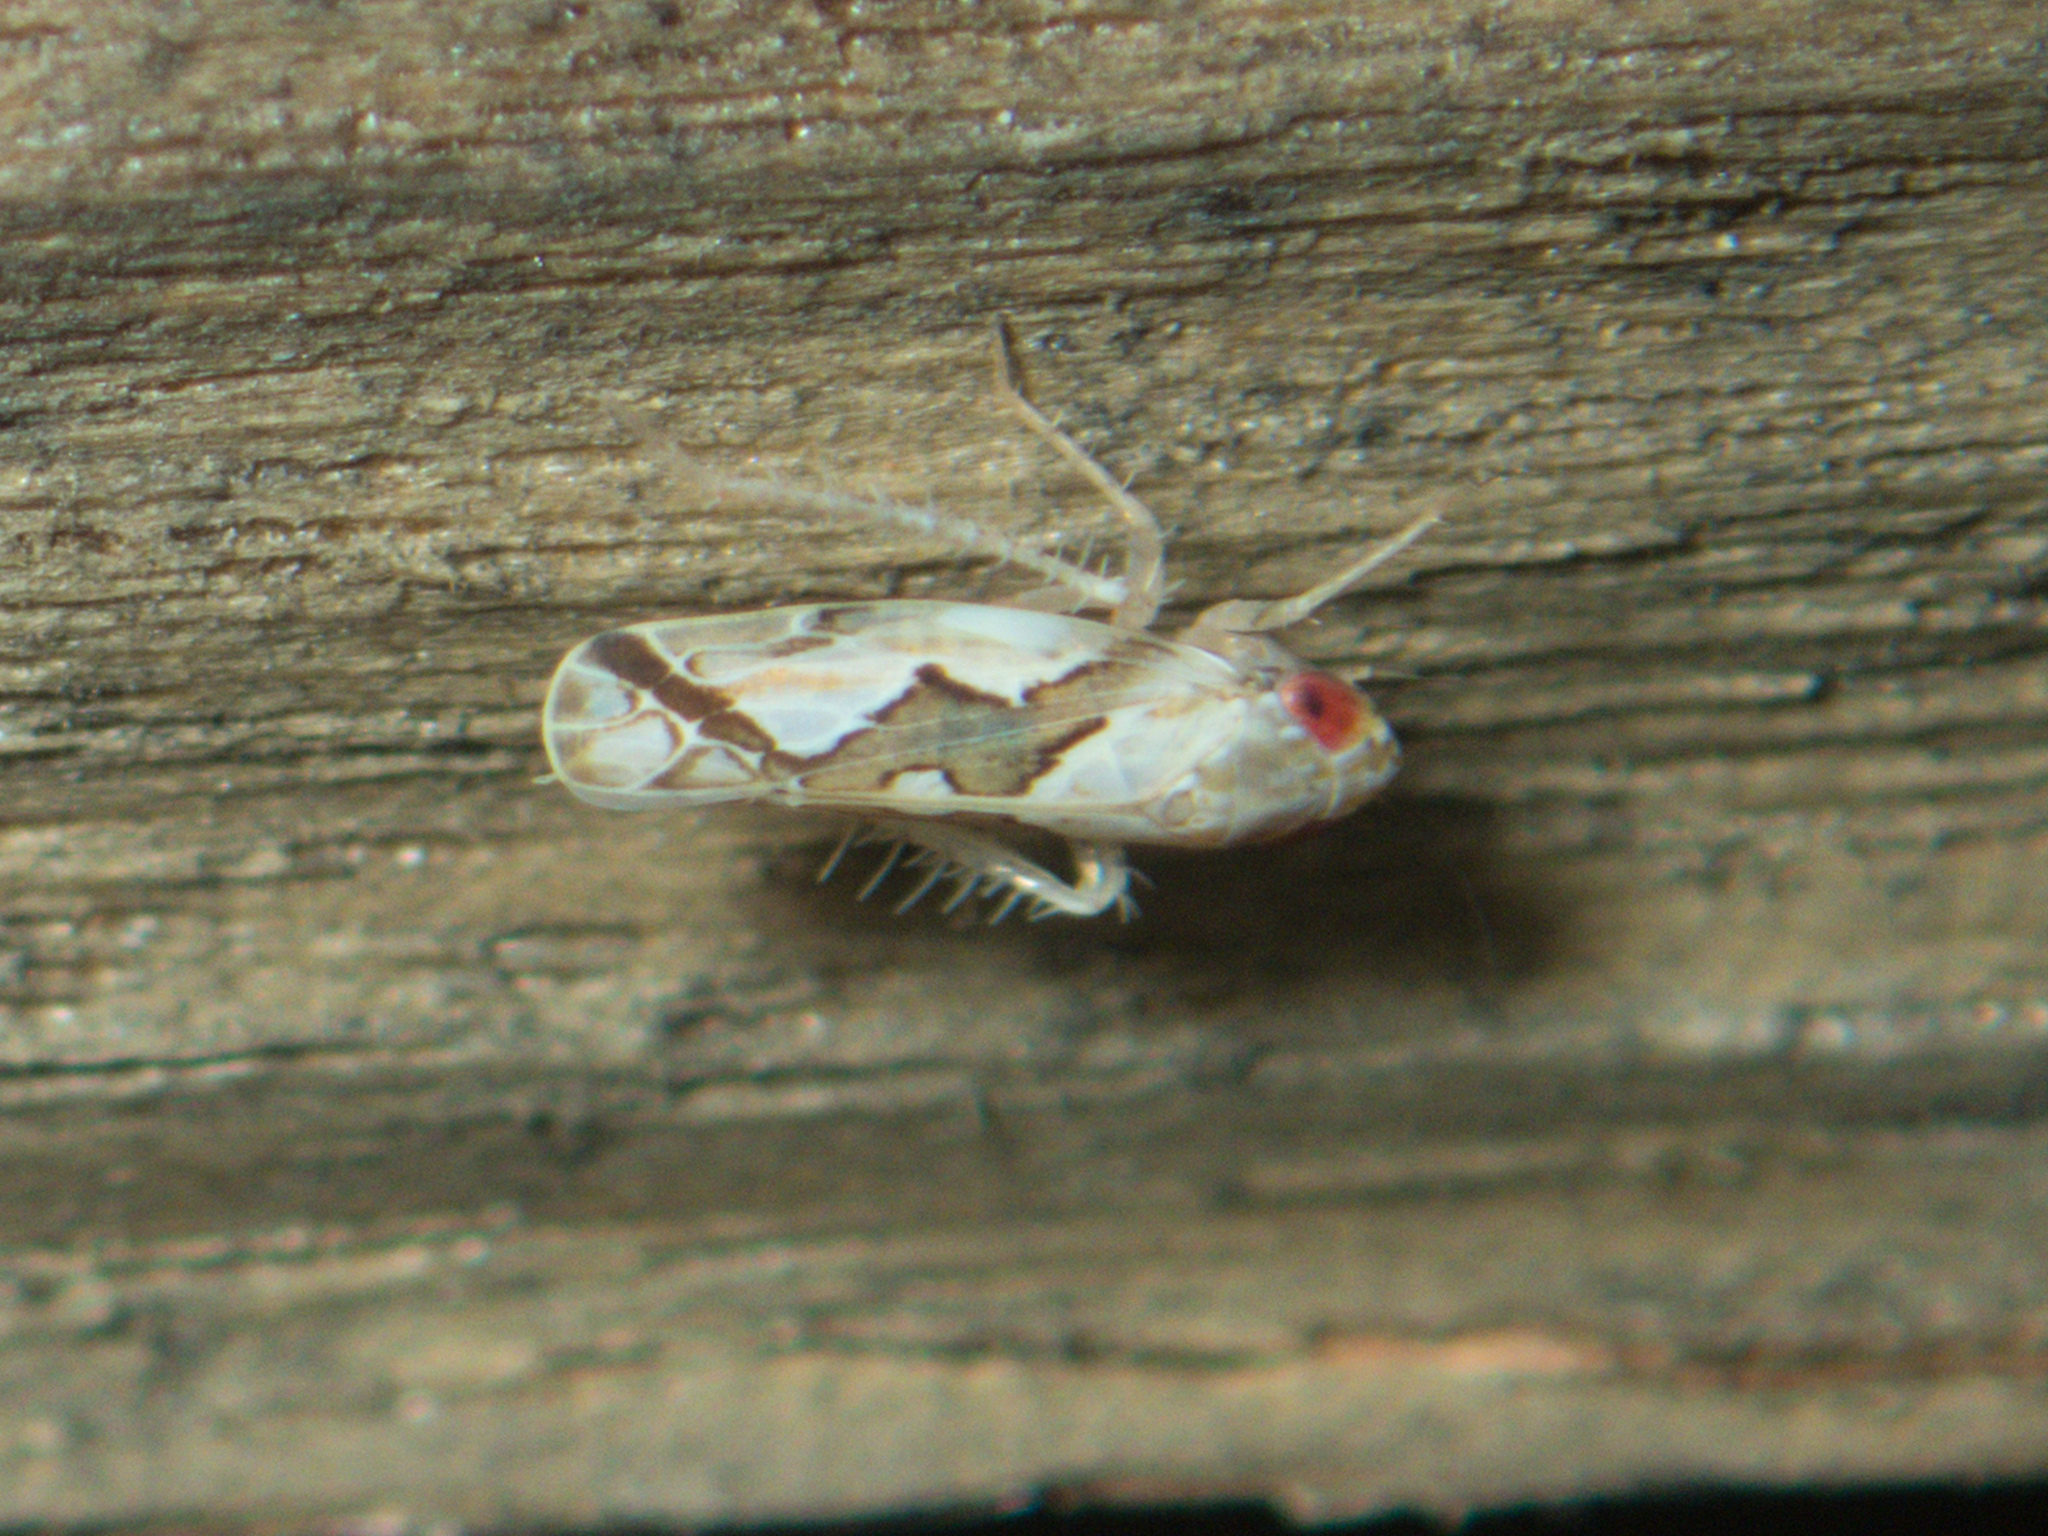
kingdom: Animalia
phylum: Arthropoda
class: Insecta
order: Hemiptera
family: Cicadellidae
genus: Maiestas
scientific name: Maiestas dorsalis
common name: Zig-zag leafhopper
